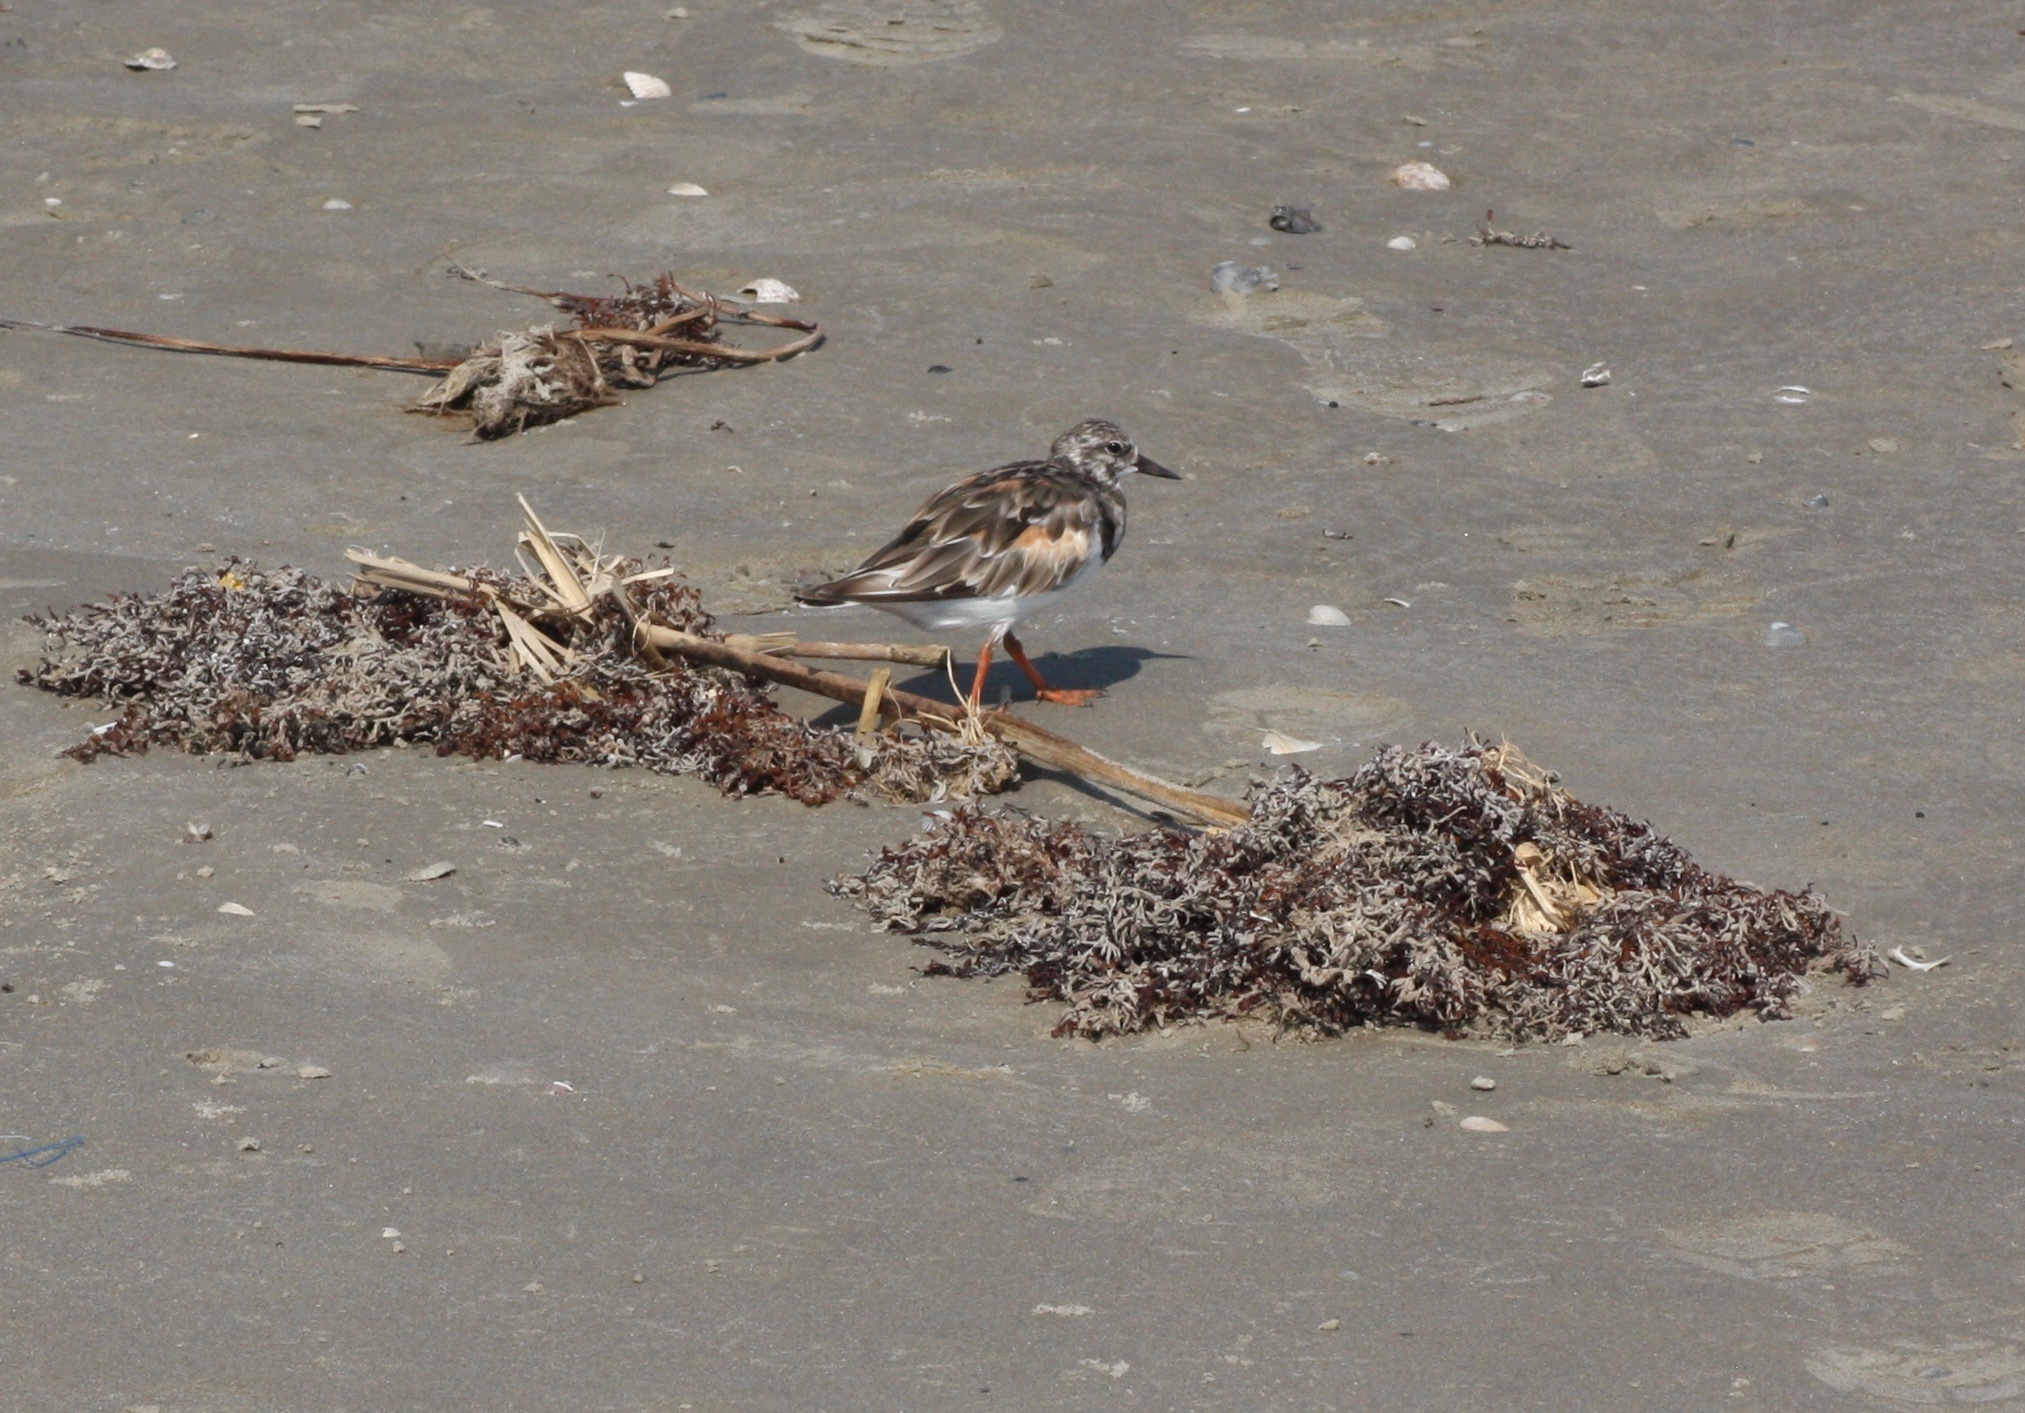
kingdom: Animalia
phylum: Chordata
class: Aves
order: Charadriiformes
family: Scolopacidae
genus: Arenaria
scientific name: Arenaria interpres
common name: Ruddy turnstone
